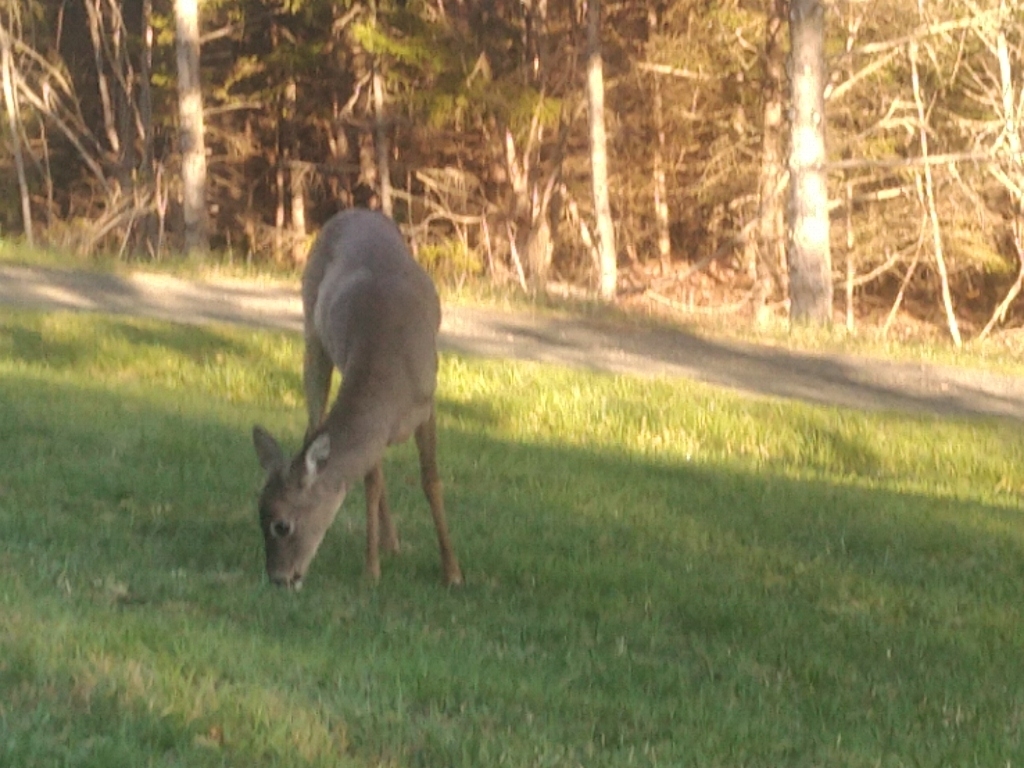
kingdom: Animalia
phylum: Chordata
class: Mammalia
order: Artiodactyla
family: Cervidae
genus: Odocoileus
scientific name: Odocoileus virginianus
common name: White-tailed deer
